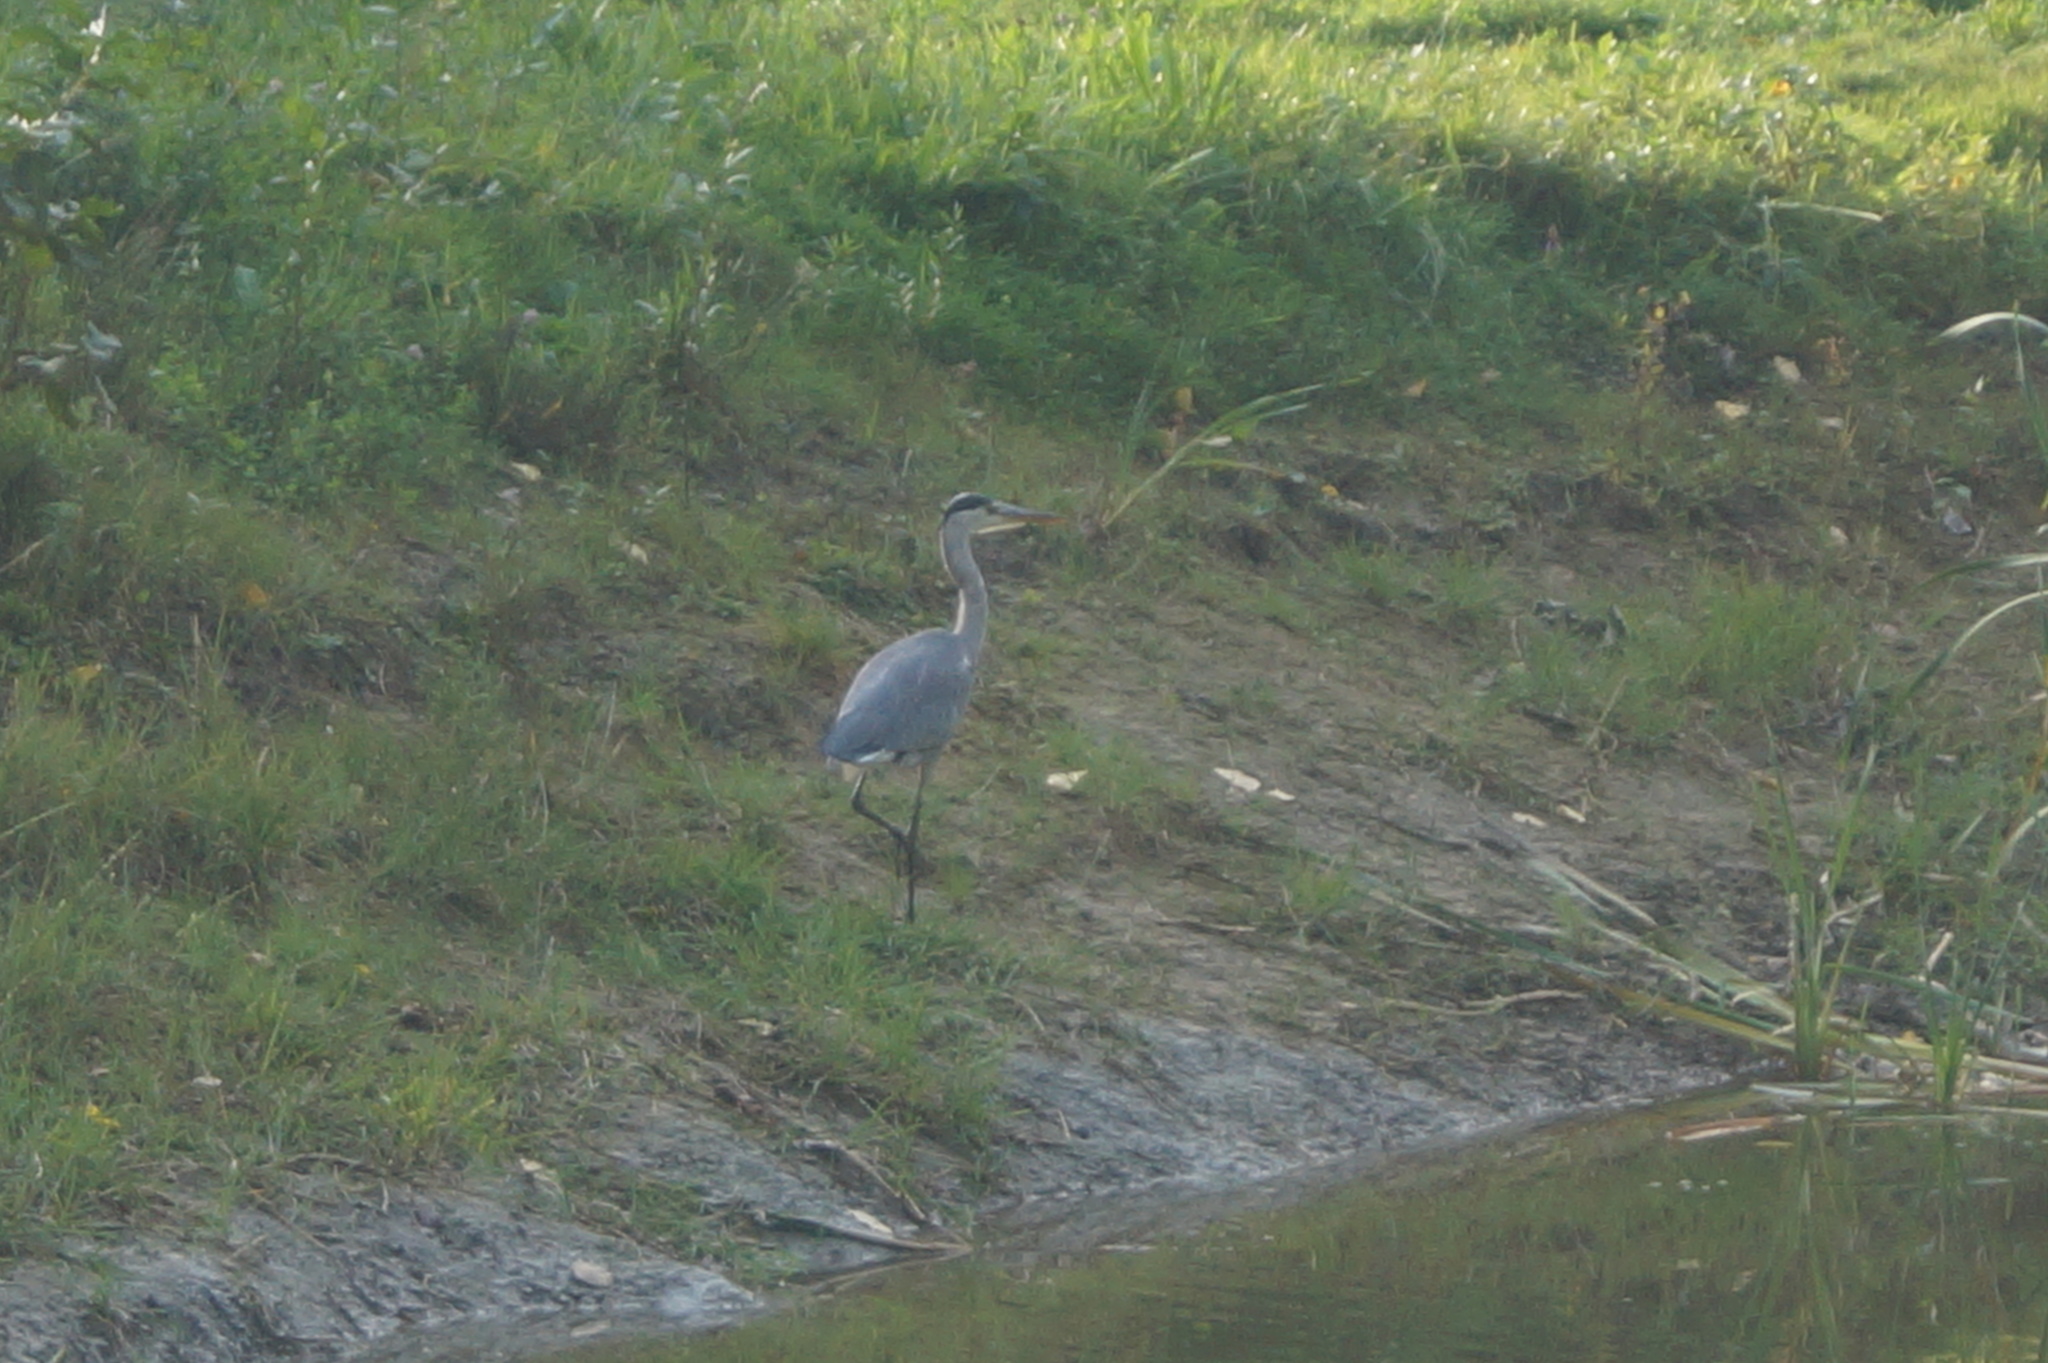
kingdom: Animalia
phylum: Chordata
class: Aves
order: Pelecaniformes
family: Ardeidae
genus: Ardea
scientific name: Ardea cinerea
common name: Grey heron
